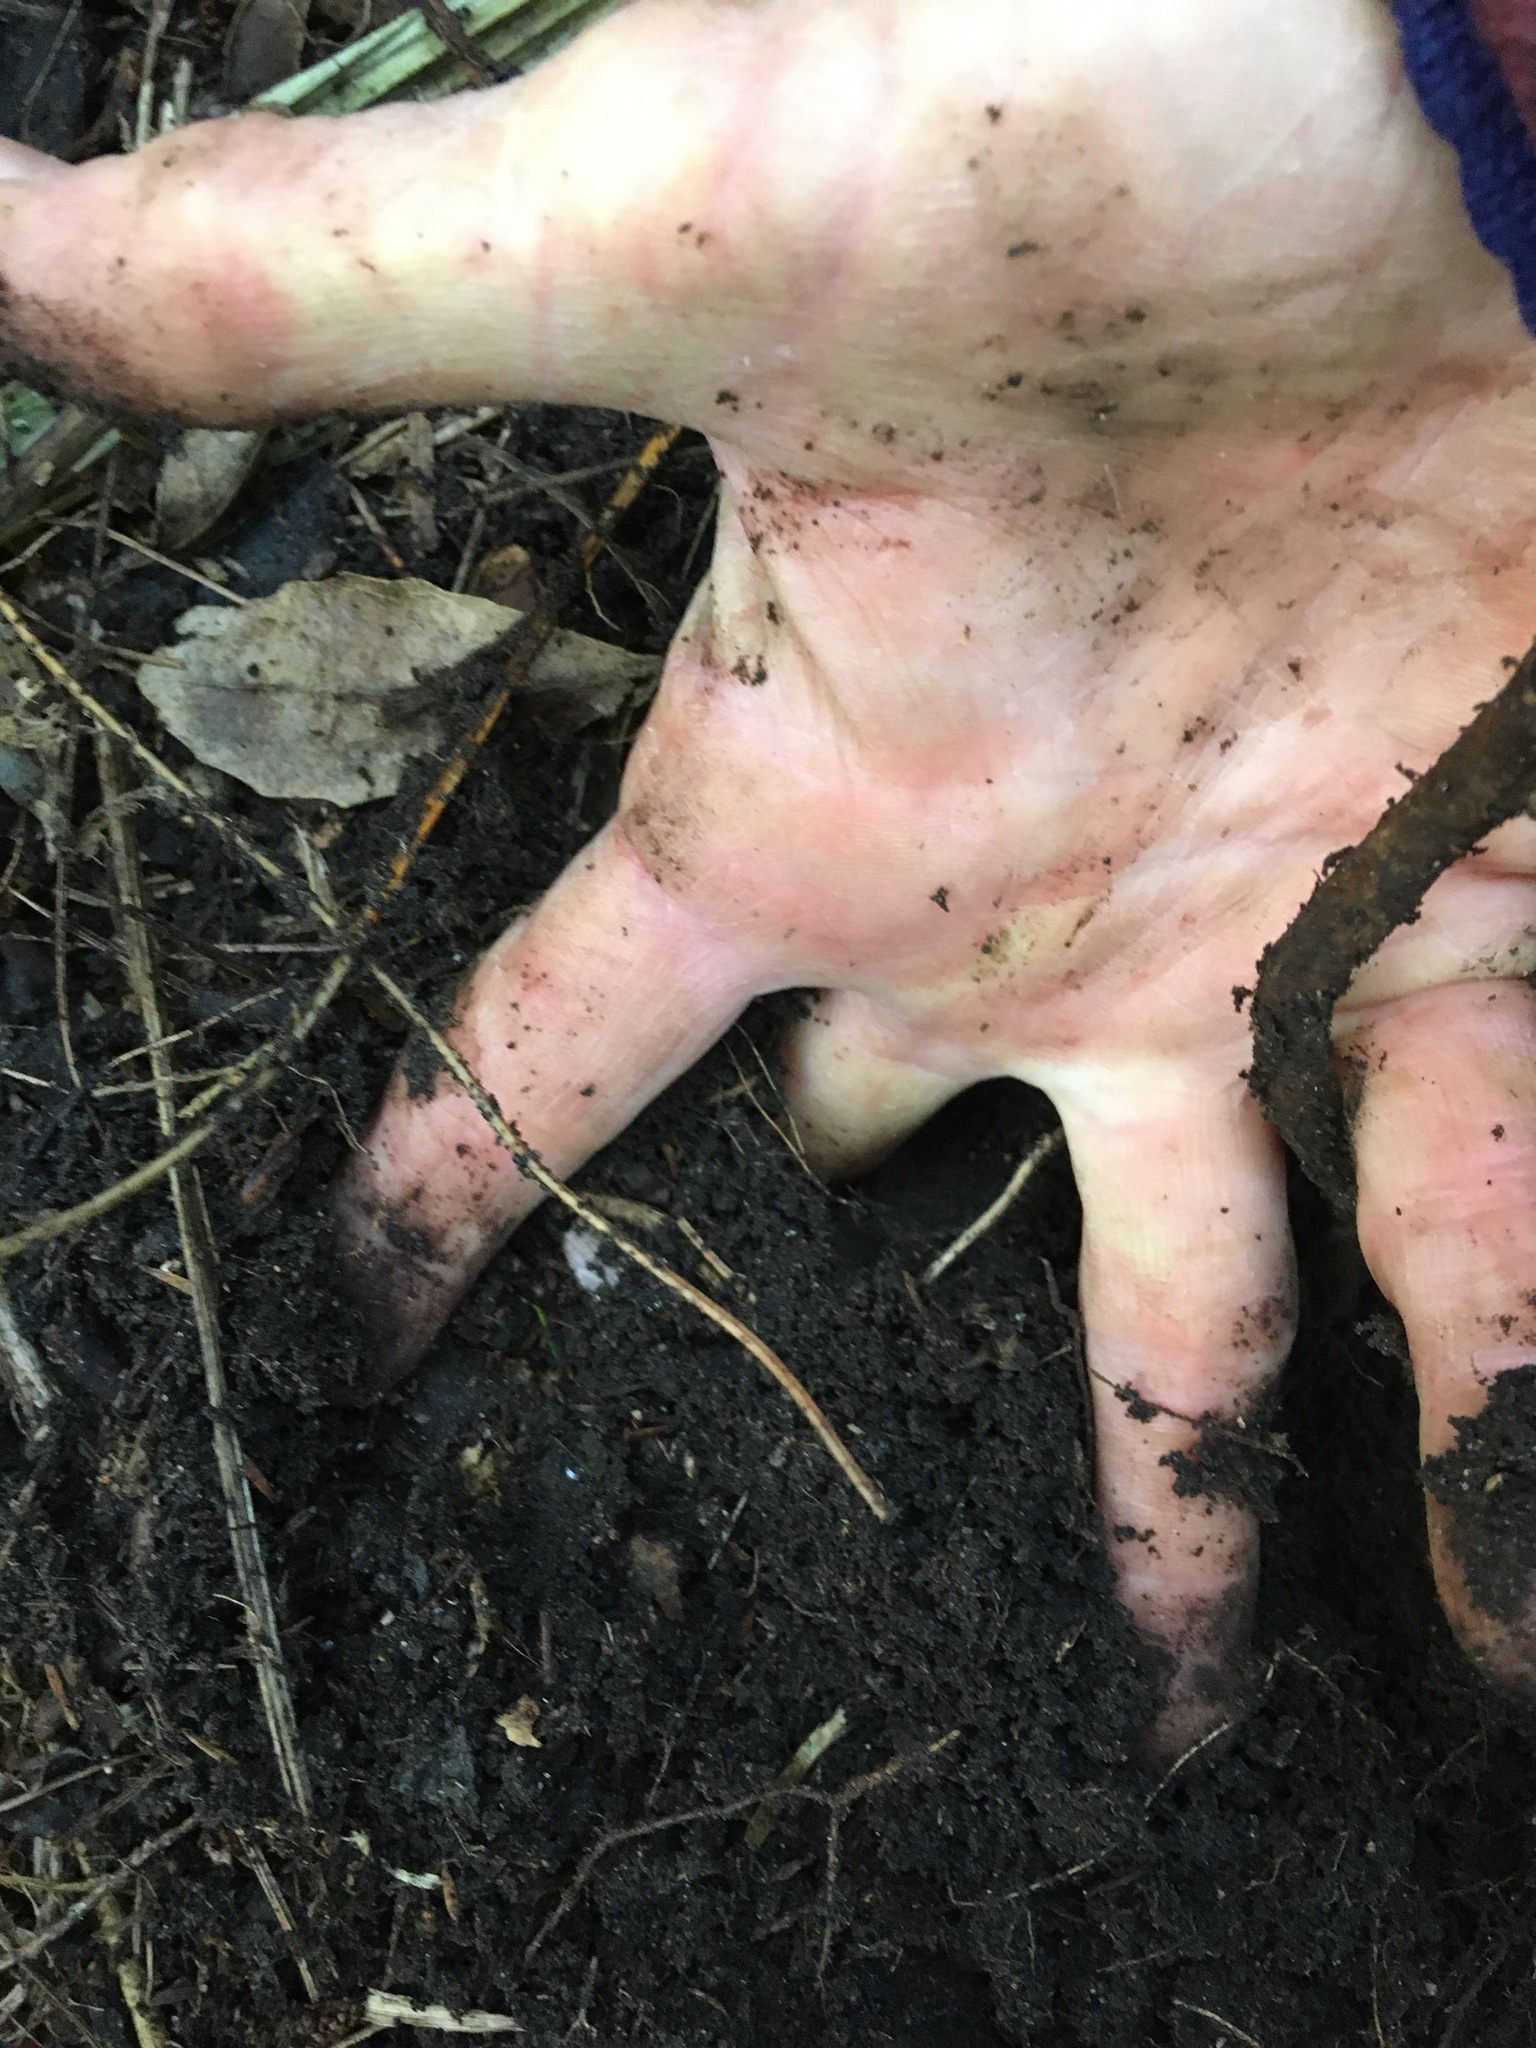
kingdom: Plantae
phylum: Tracheophyta
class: Liliopsida
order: Zingiberales
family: Zingiberaceae
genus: Hedychium
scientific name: Hedychium gardnerianum
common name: Himalayan ginger
